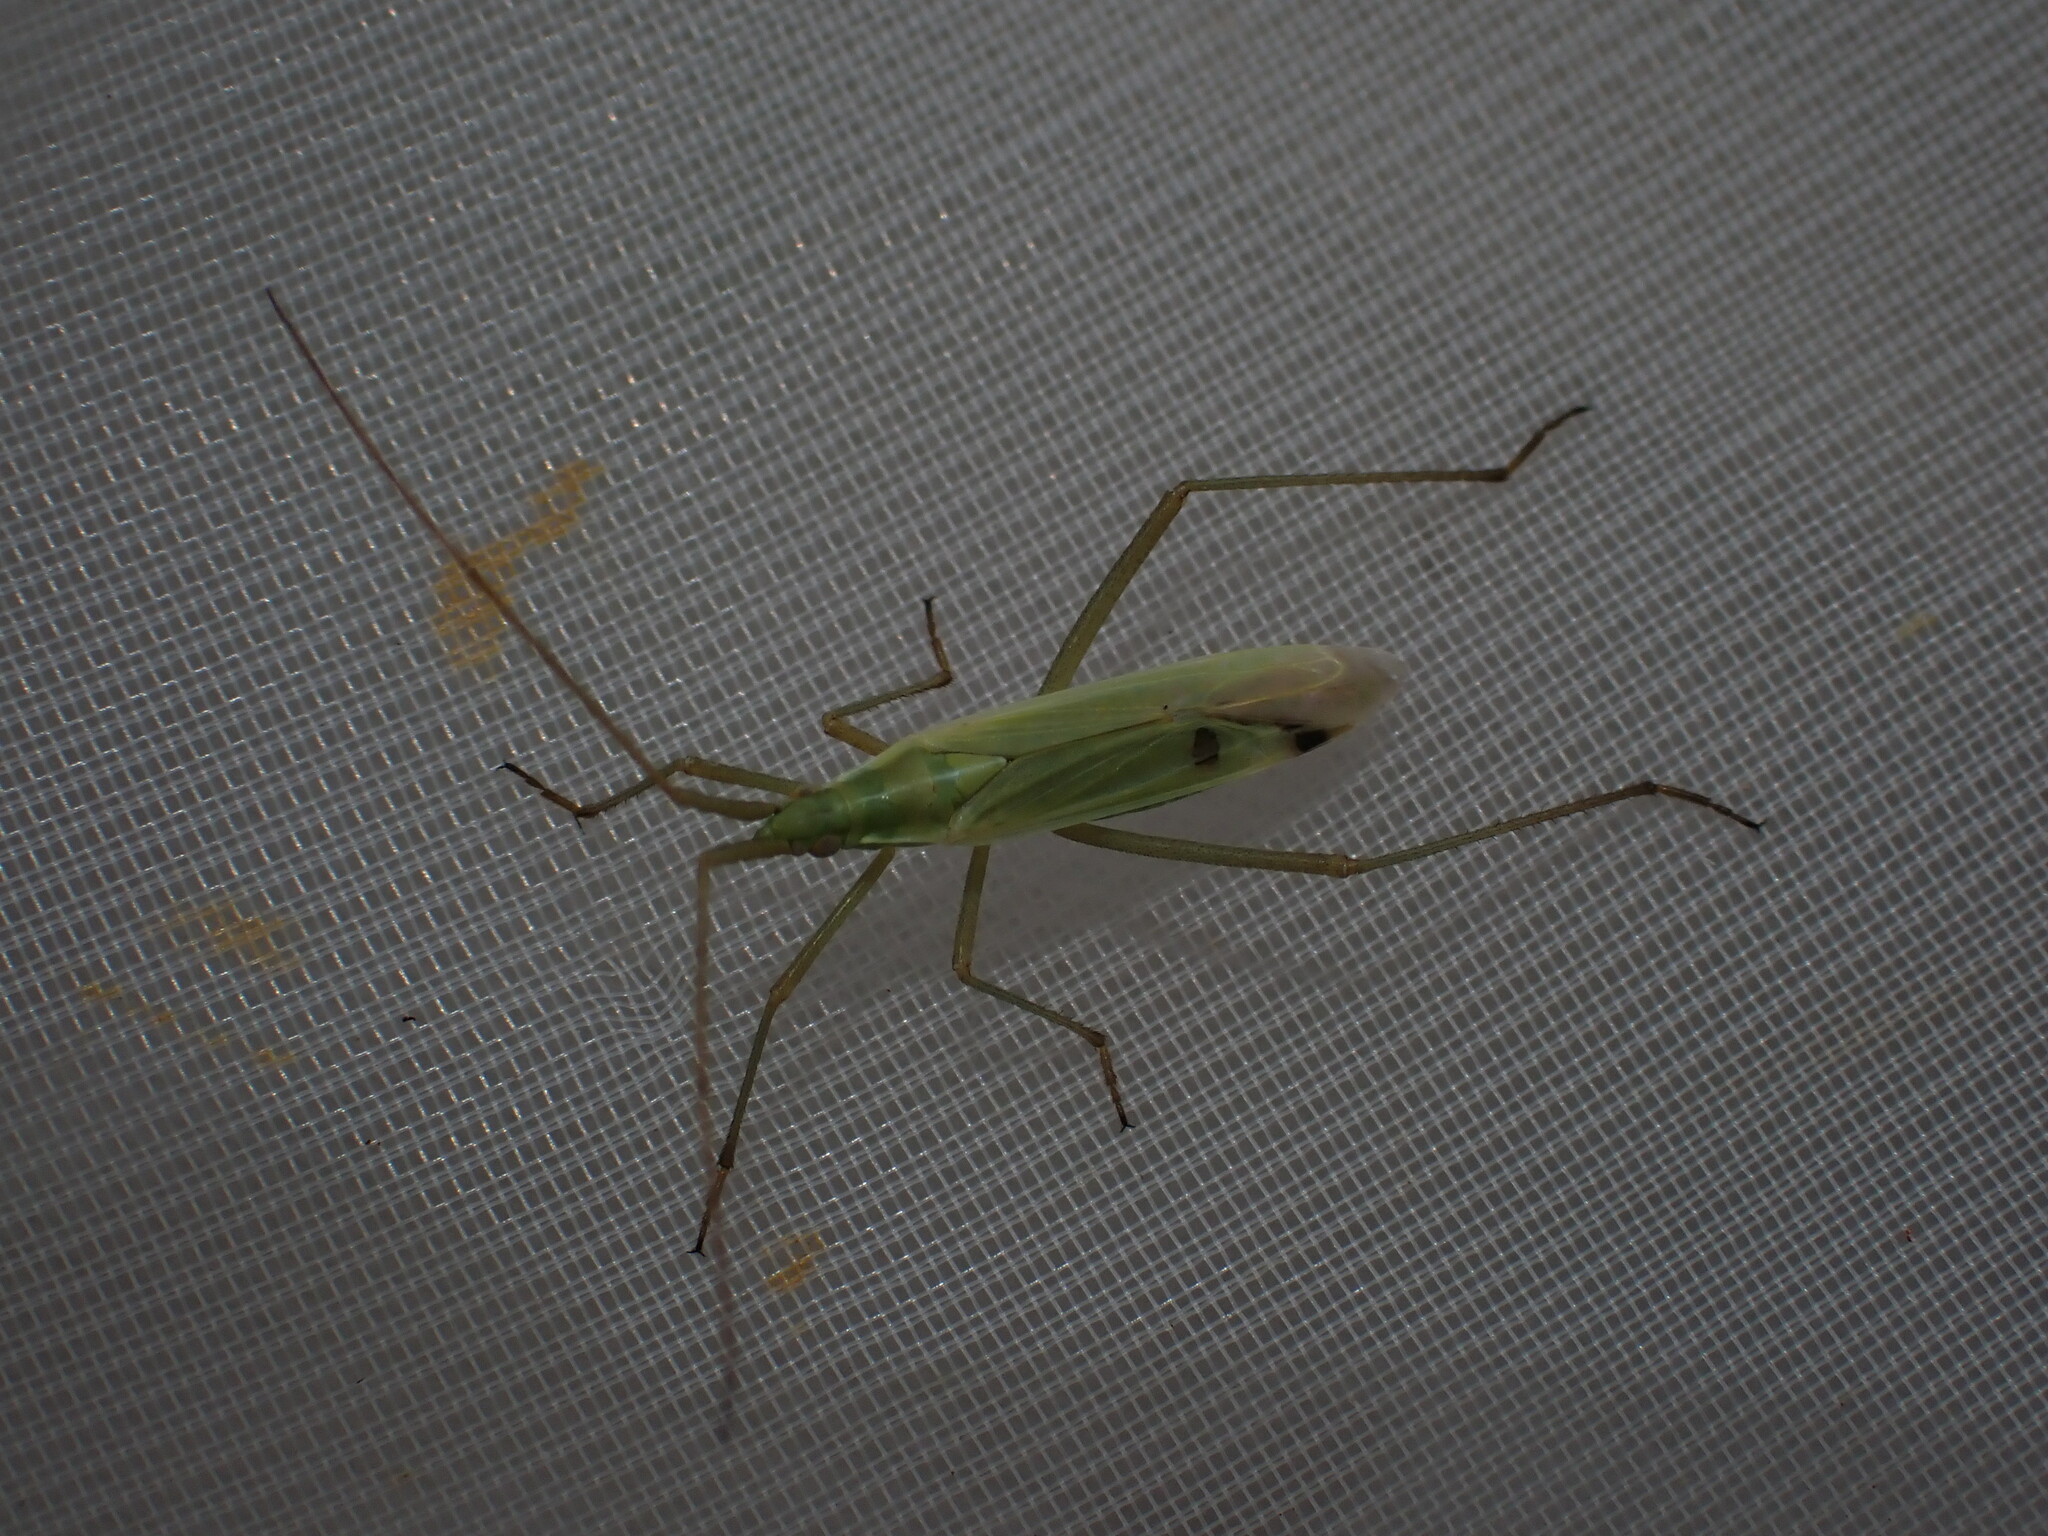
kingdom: Animalia
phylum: Arthropoda
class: Insecta
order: Hemiptera
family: Miridae
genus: Megaloceroea
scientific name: Megaloceroea recticornis
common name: Plant bug
